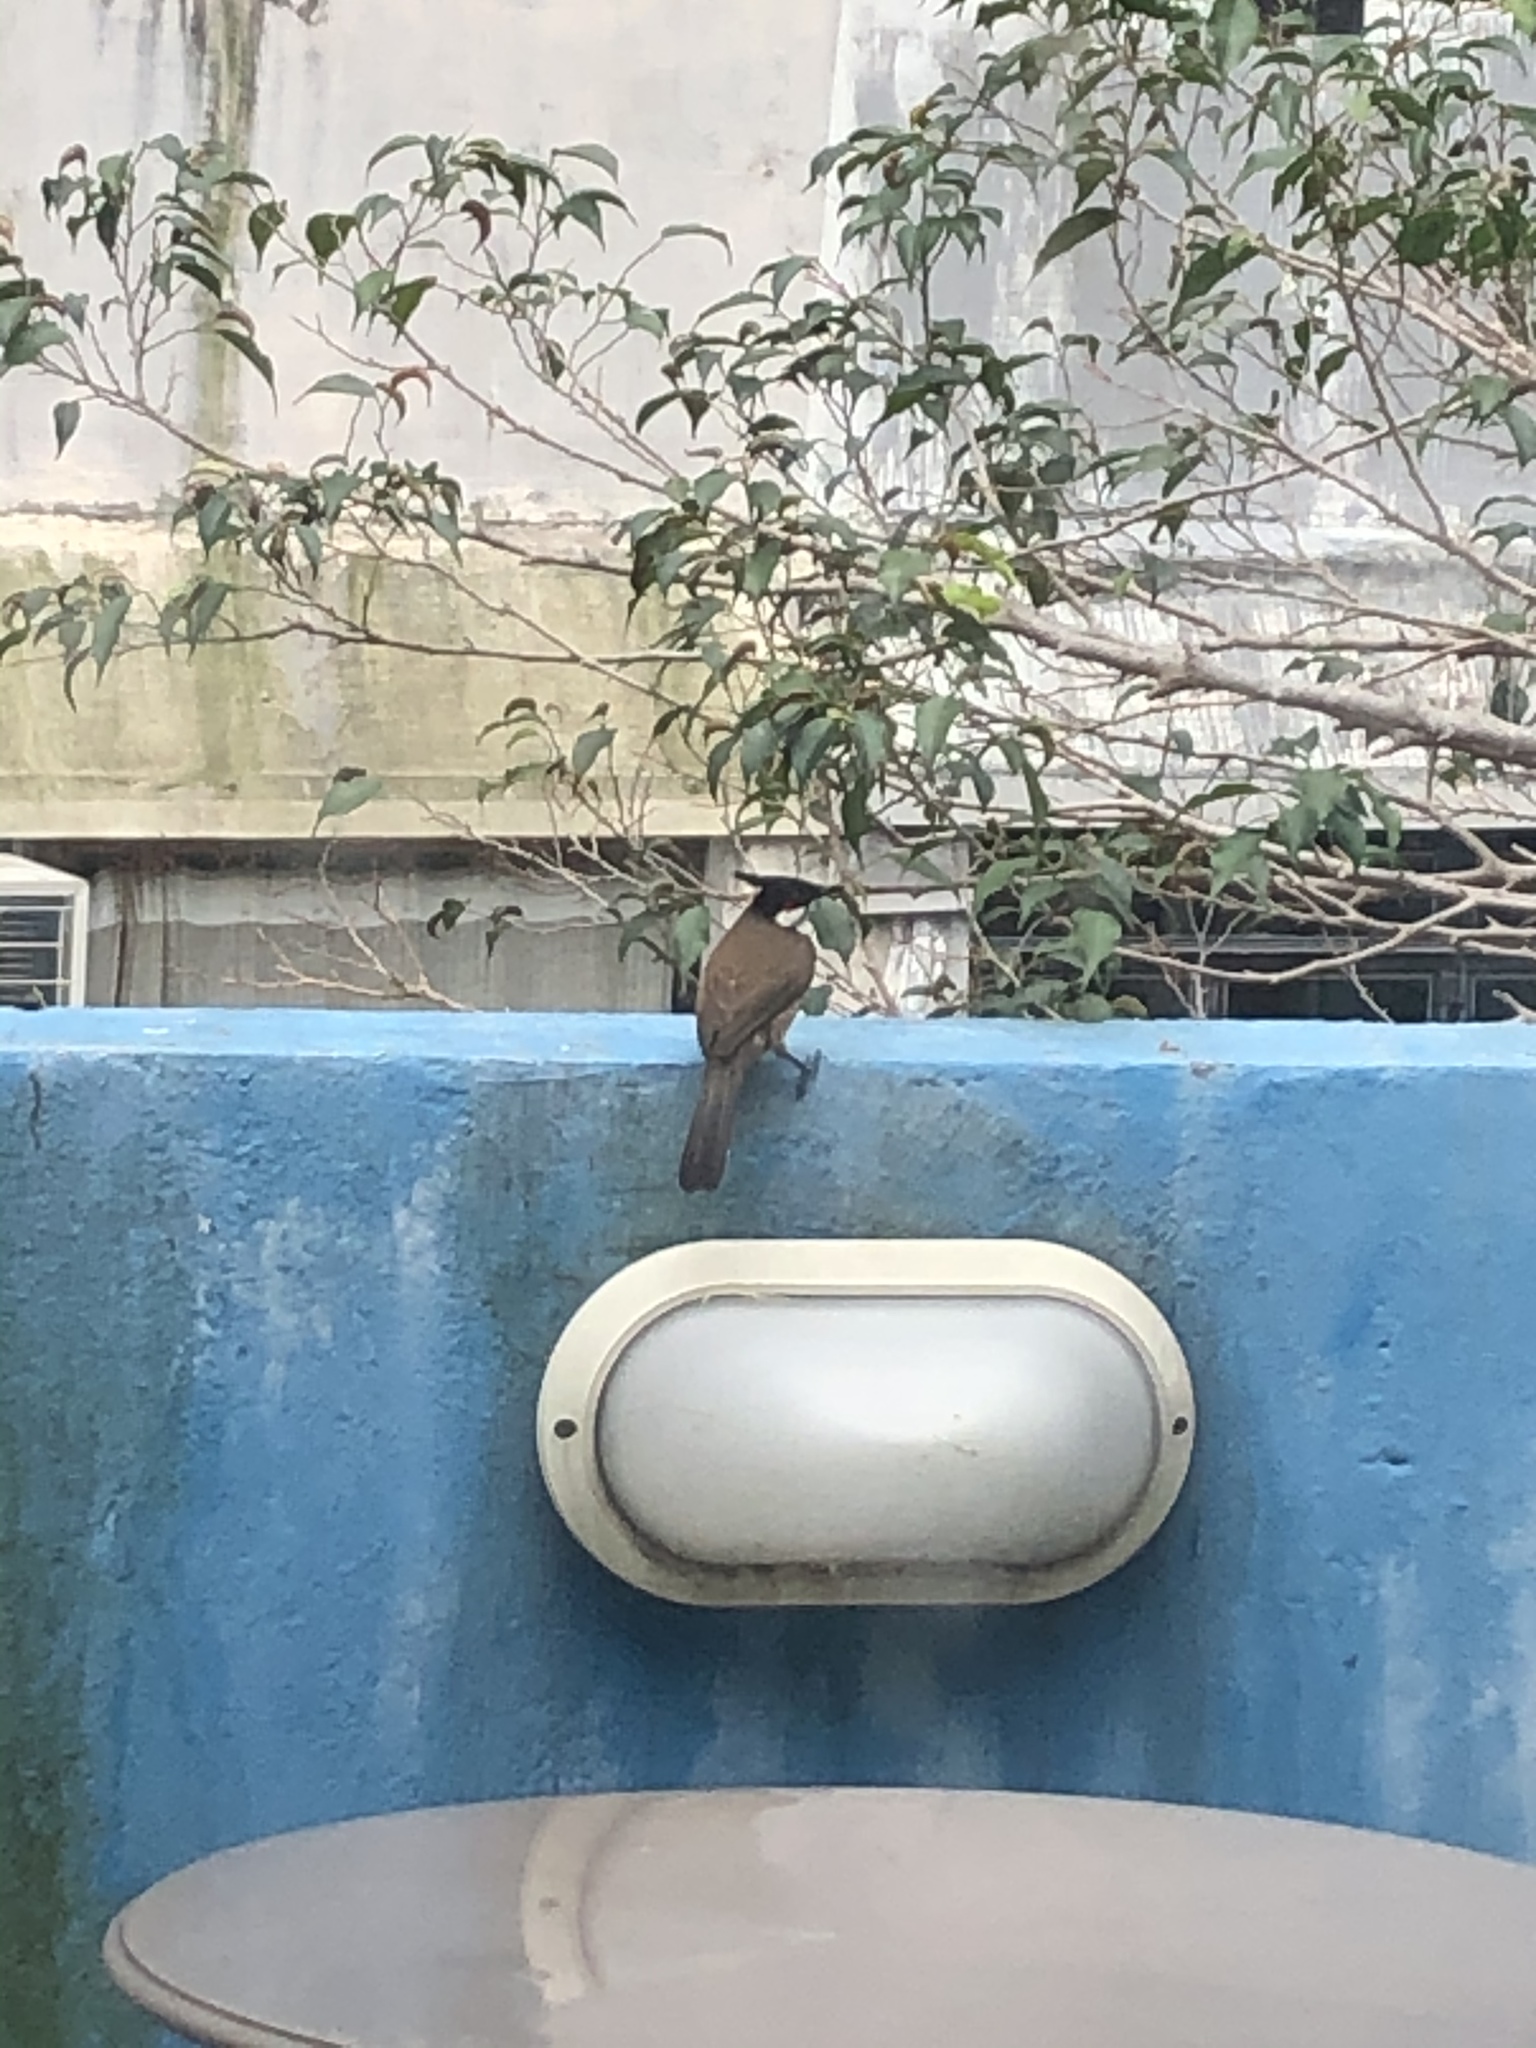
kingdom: Animalia
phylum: Chordata
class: Aves
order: Passeriformes
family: Pycnonotidae
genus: Pycnonotus
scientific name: Pycnonotus jocosus
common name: Red-whiskered bulbul
